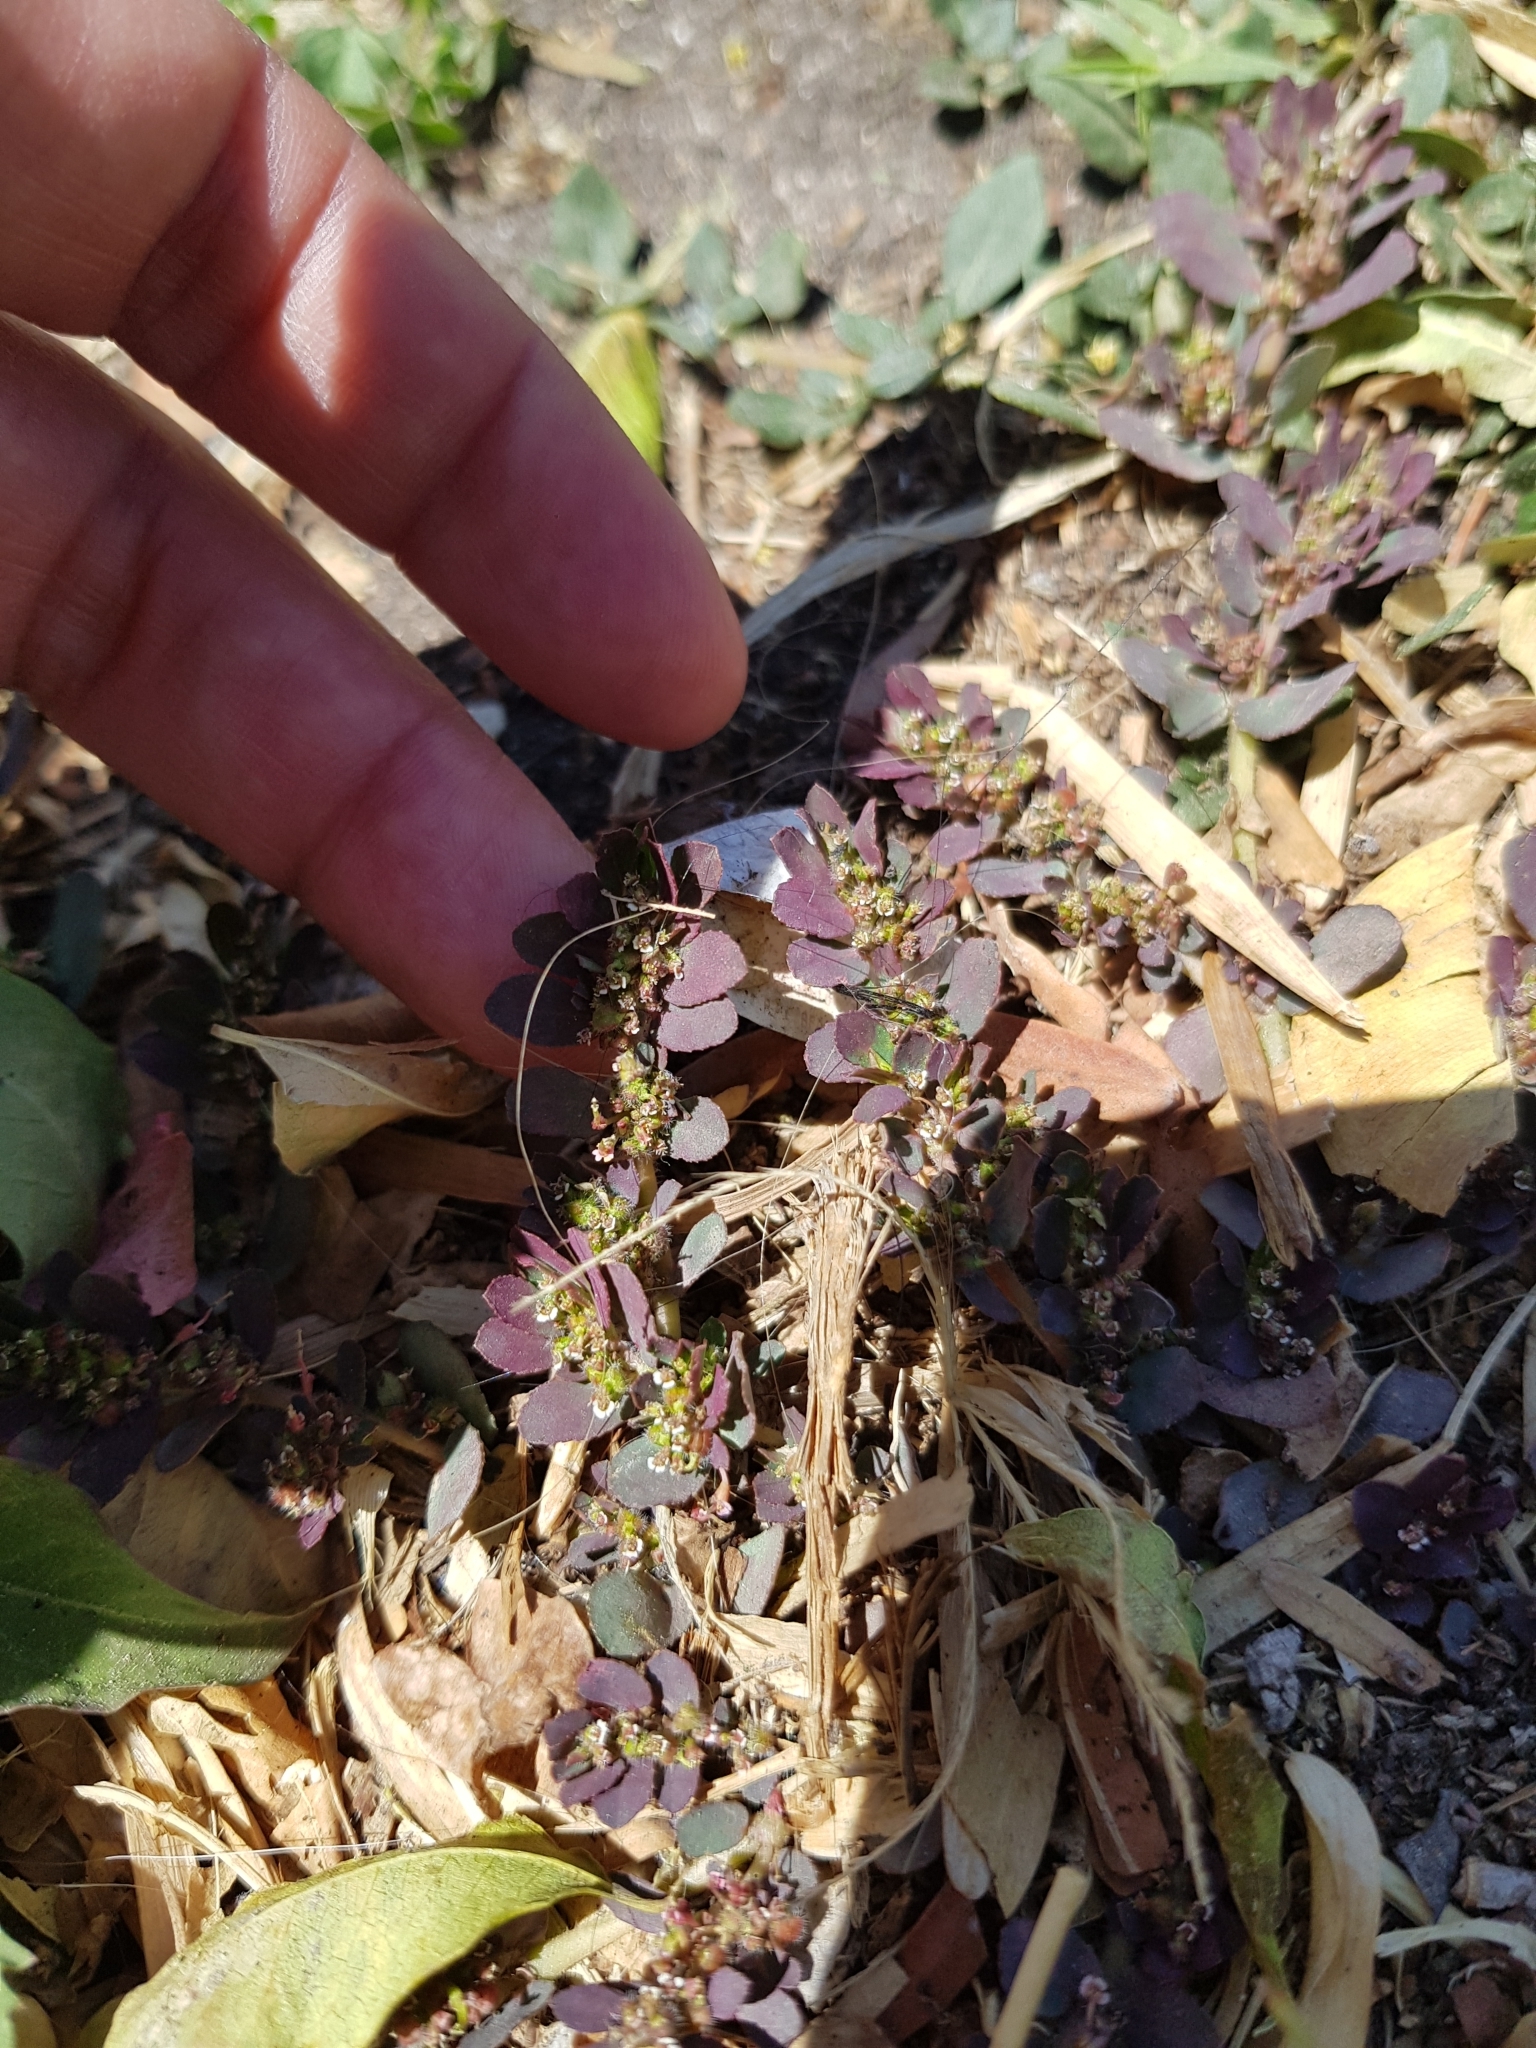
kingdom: Plantae
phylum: Tracheophyta
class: Magnoliopsida
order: Malpighiales
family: Euphorbiaceae
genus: Euphorbia
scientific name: Euphorbia prostrata
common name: Prostrate sandmat
